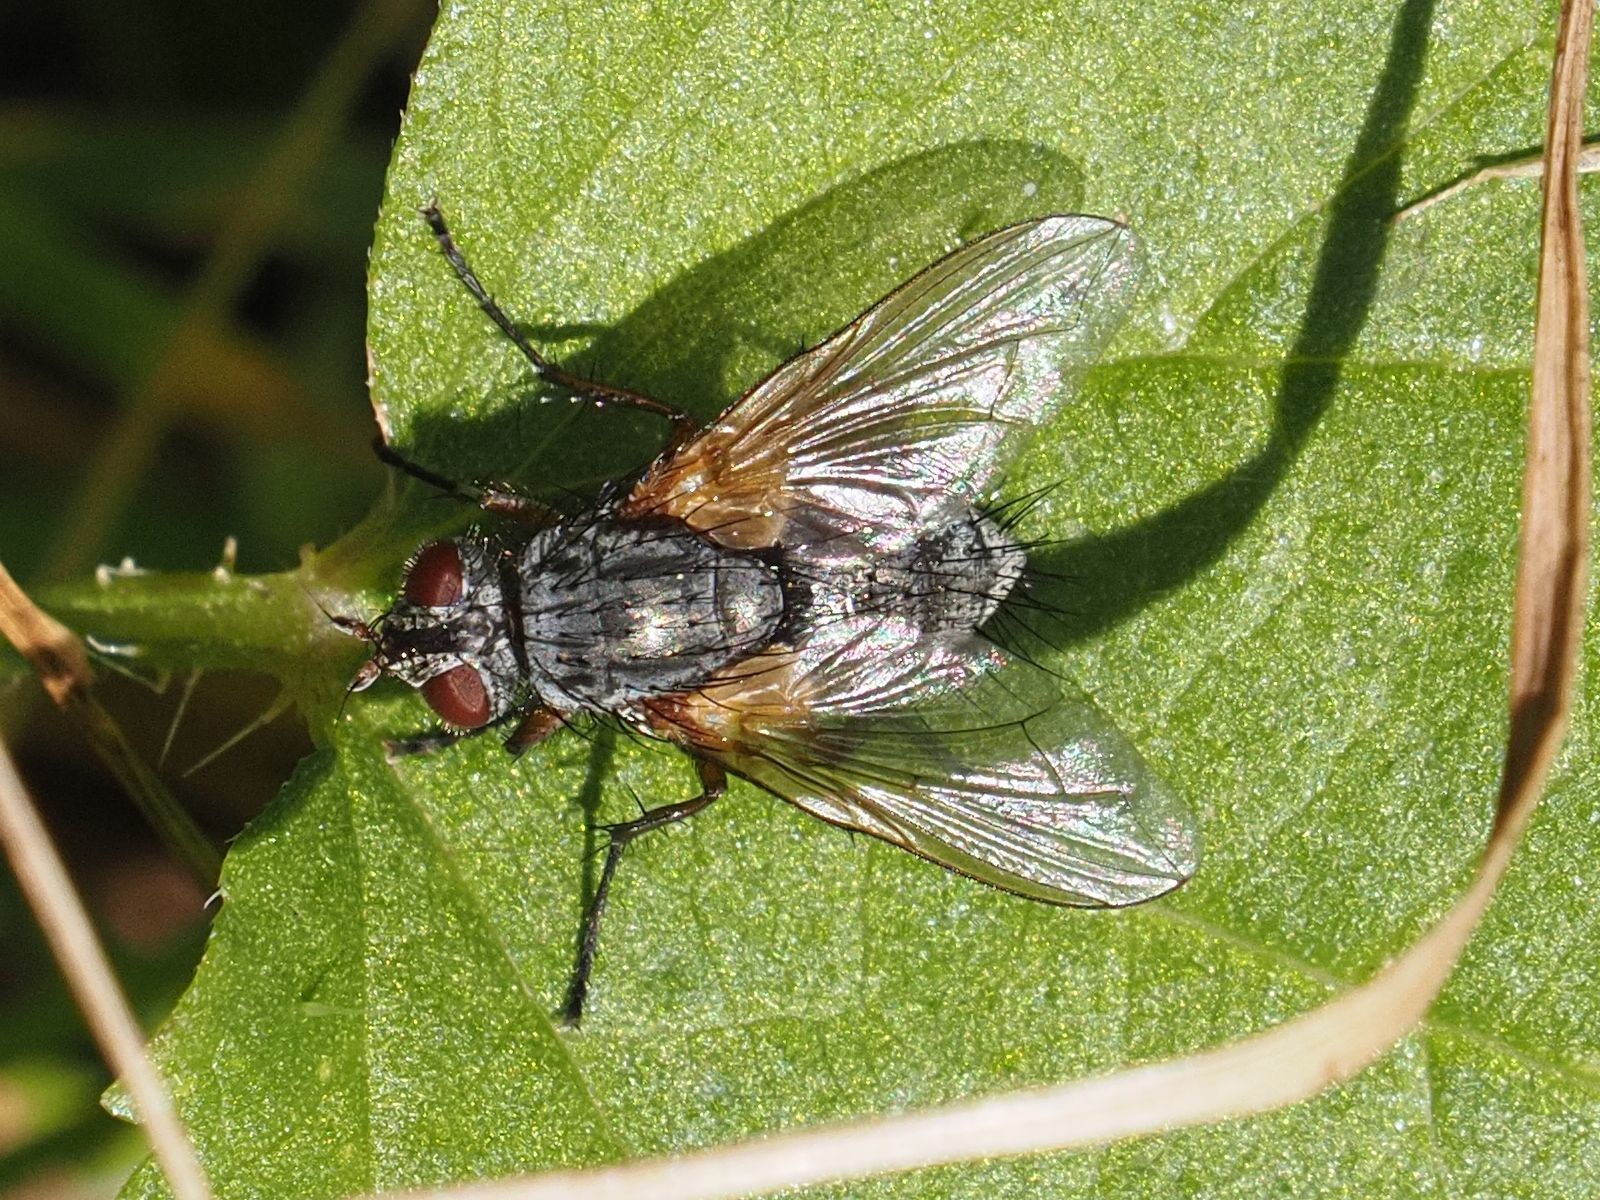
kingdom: Animalia
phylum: Arthropoda
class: Insecta
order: Diptera
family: Tachinidae
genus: Macquartia
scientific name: Macquartia grisea
